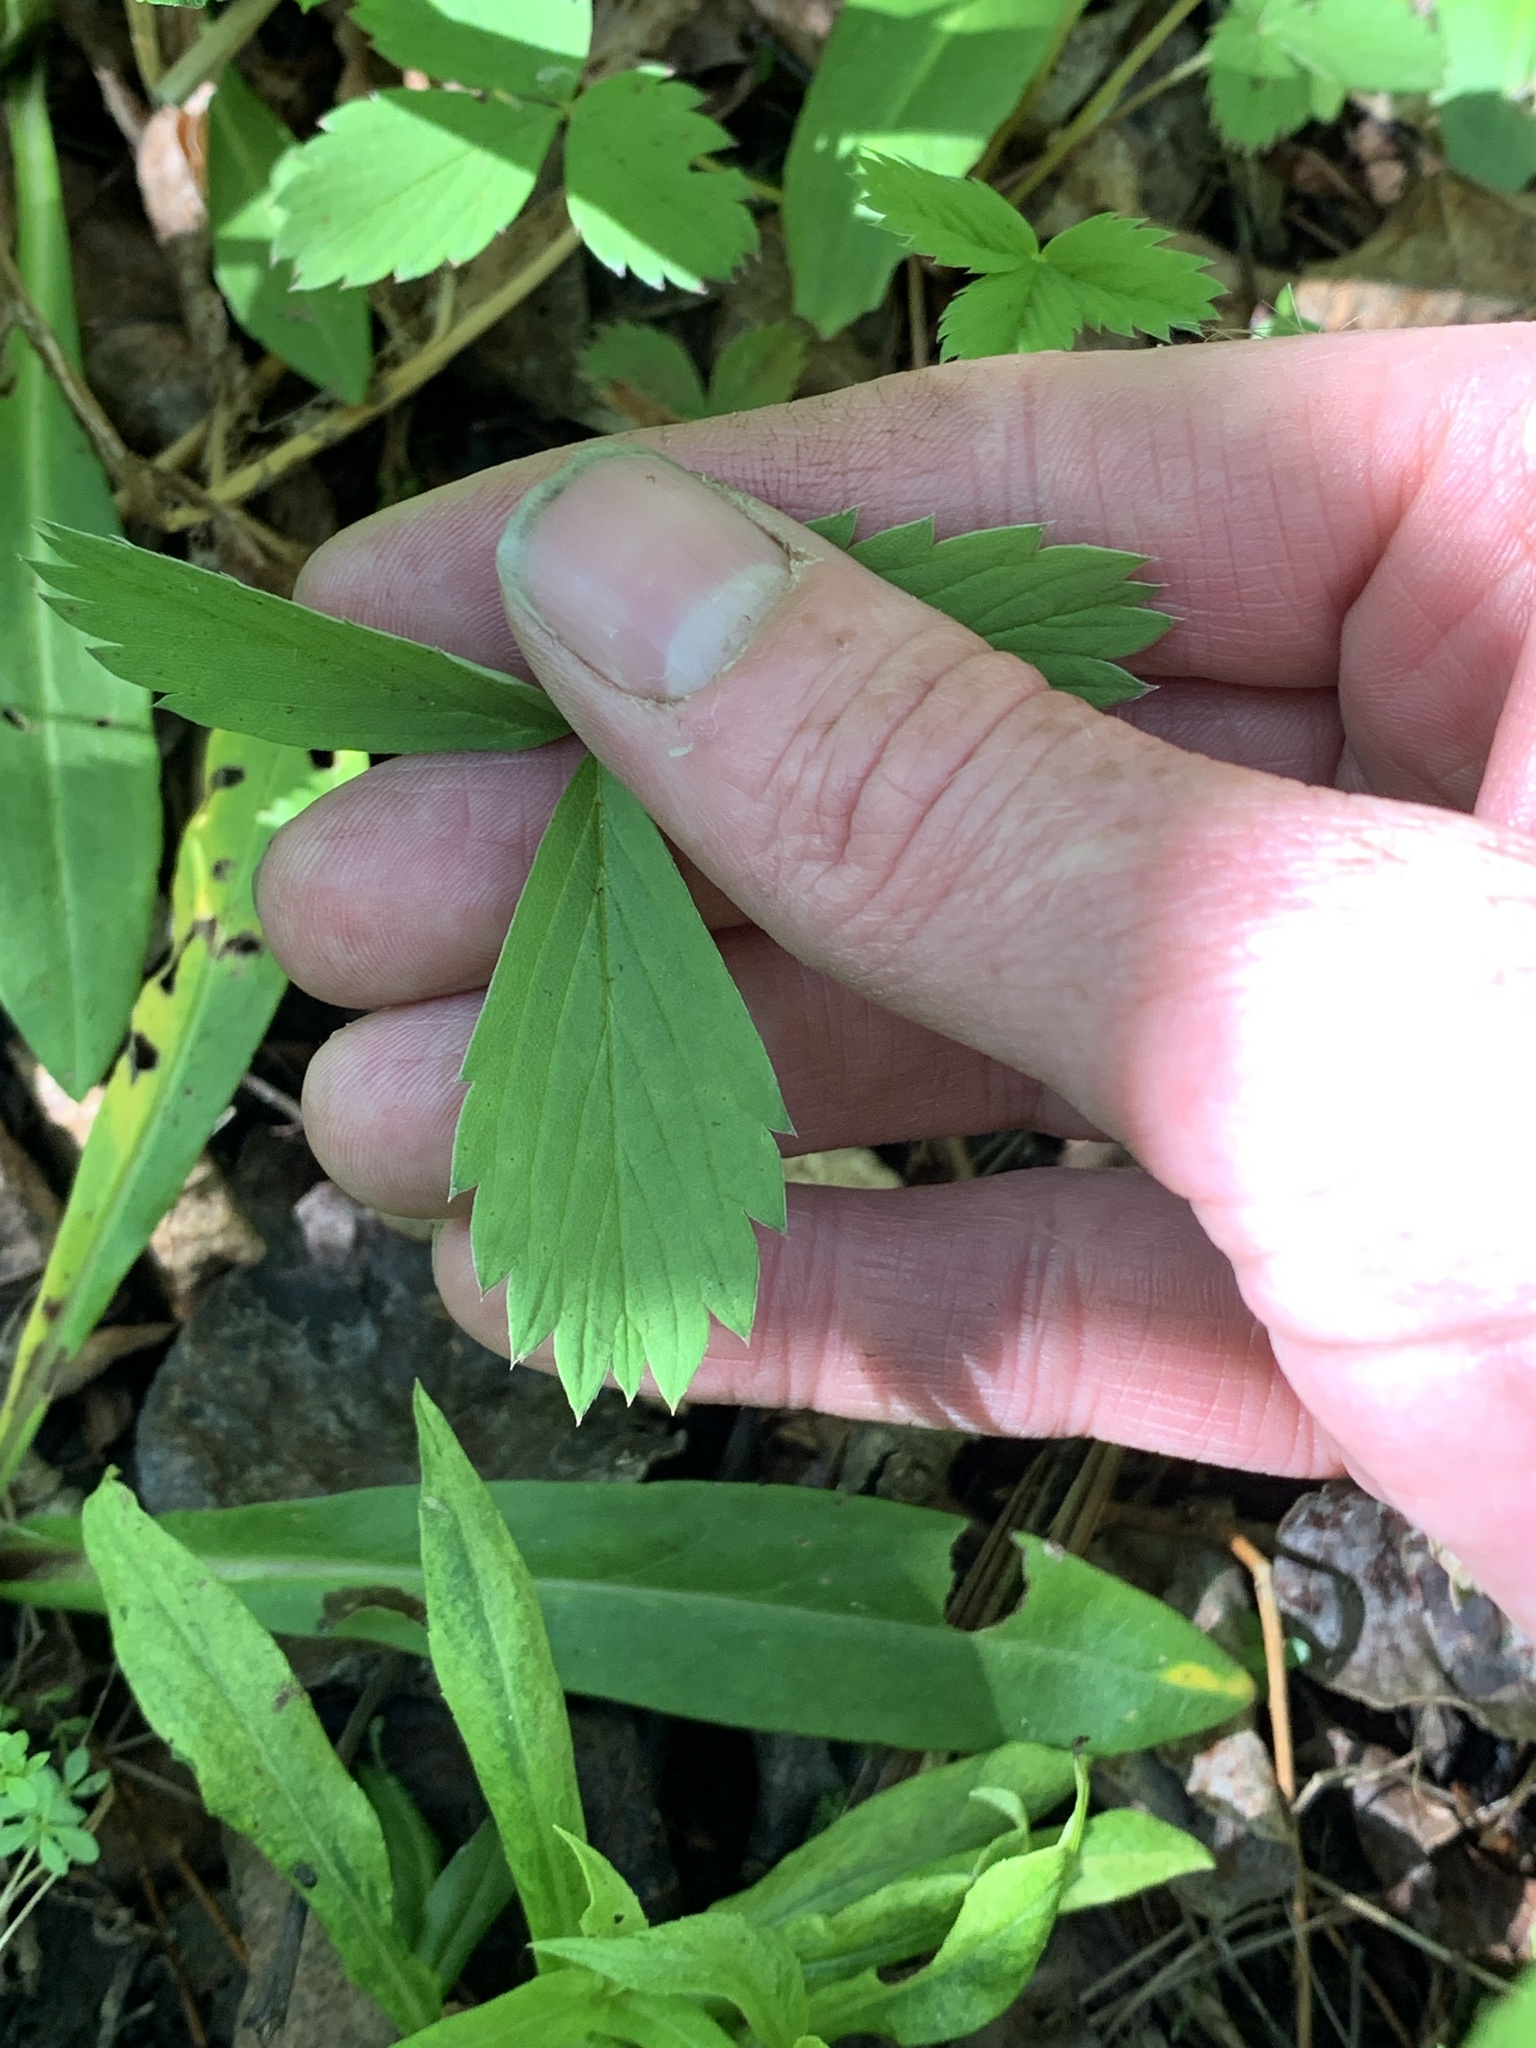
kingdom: Plantae
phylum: Tracheophyta
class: Magnoliopsida
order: Rosales
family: Rosaceae
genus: Fragaria
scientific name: Fragaria virginiana
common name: Thickleaved wild strawberry
